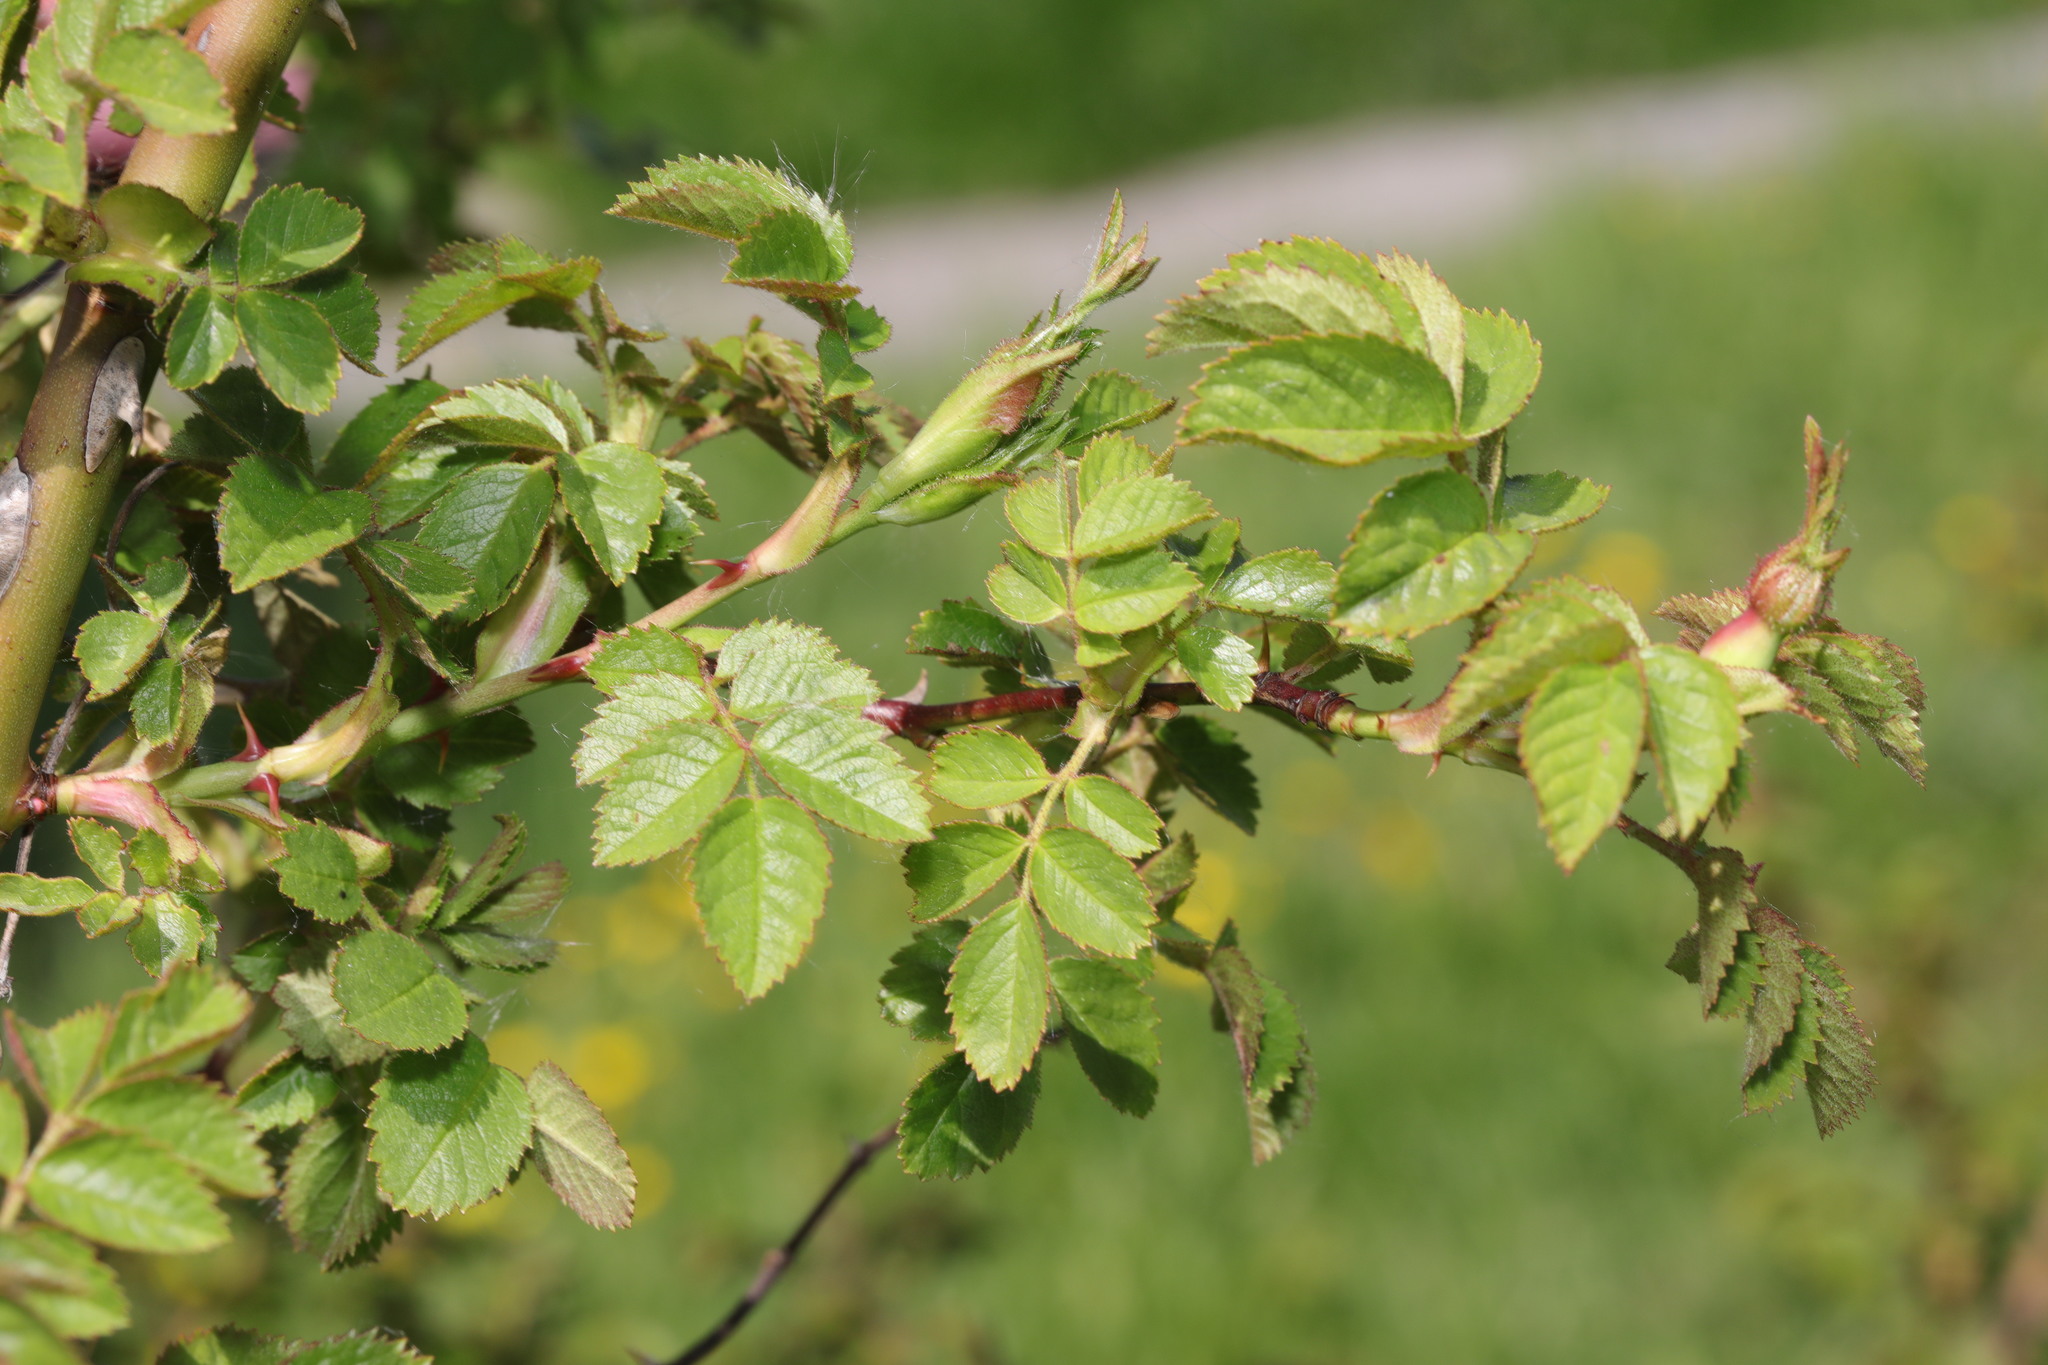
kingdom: Plantae
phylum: Tracheophyta
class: Magnoliopsida
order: Rosales
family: Rosaceae
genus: Rosa
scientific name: Rosa canina
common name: Dog rose
